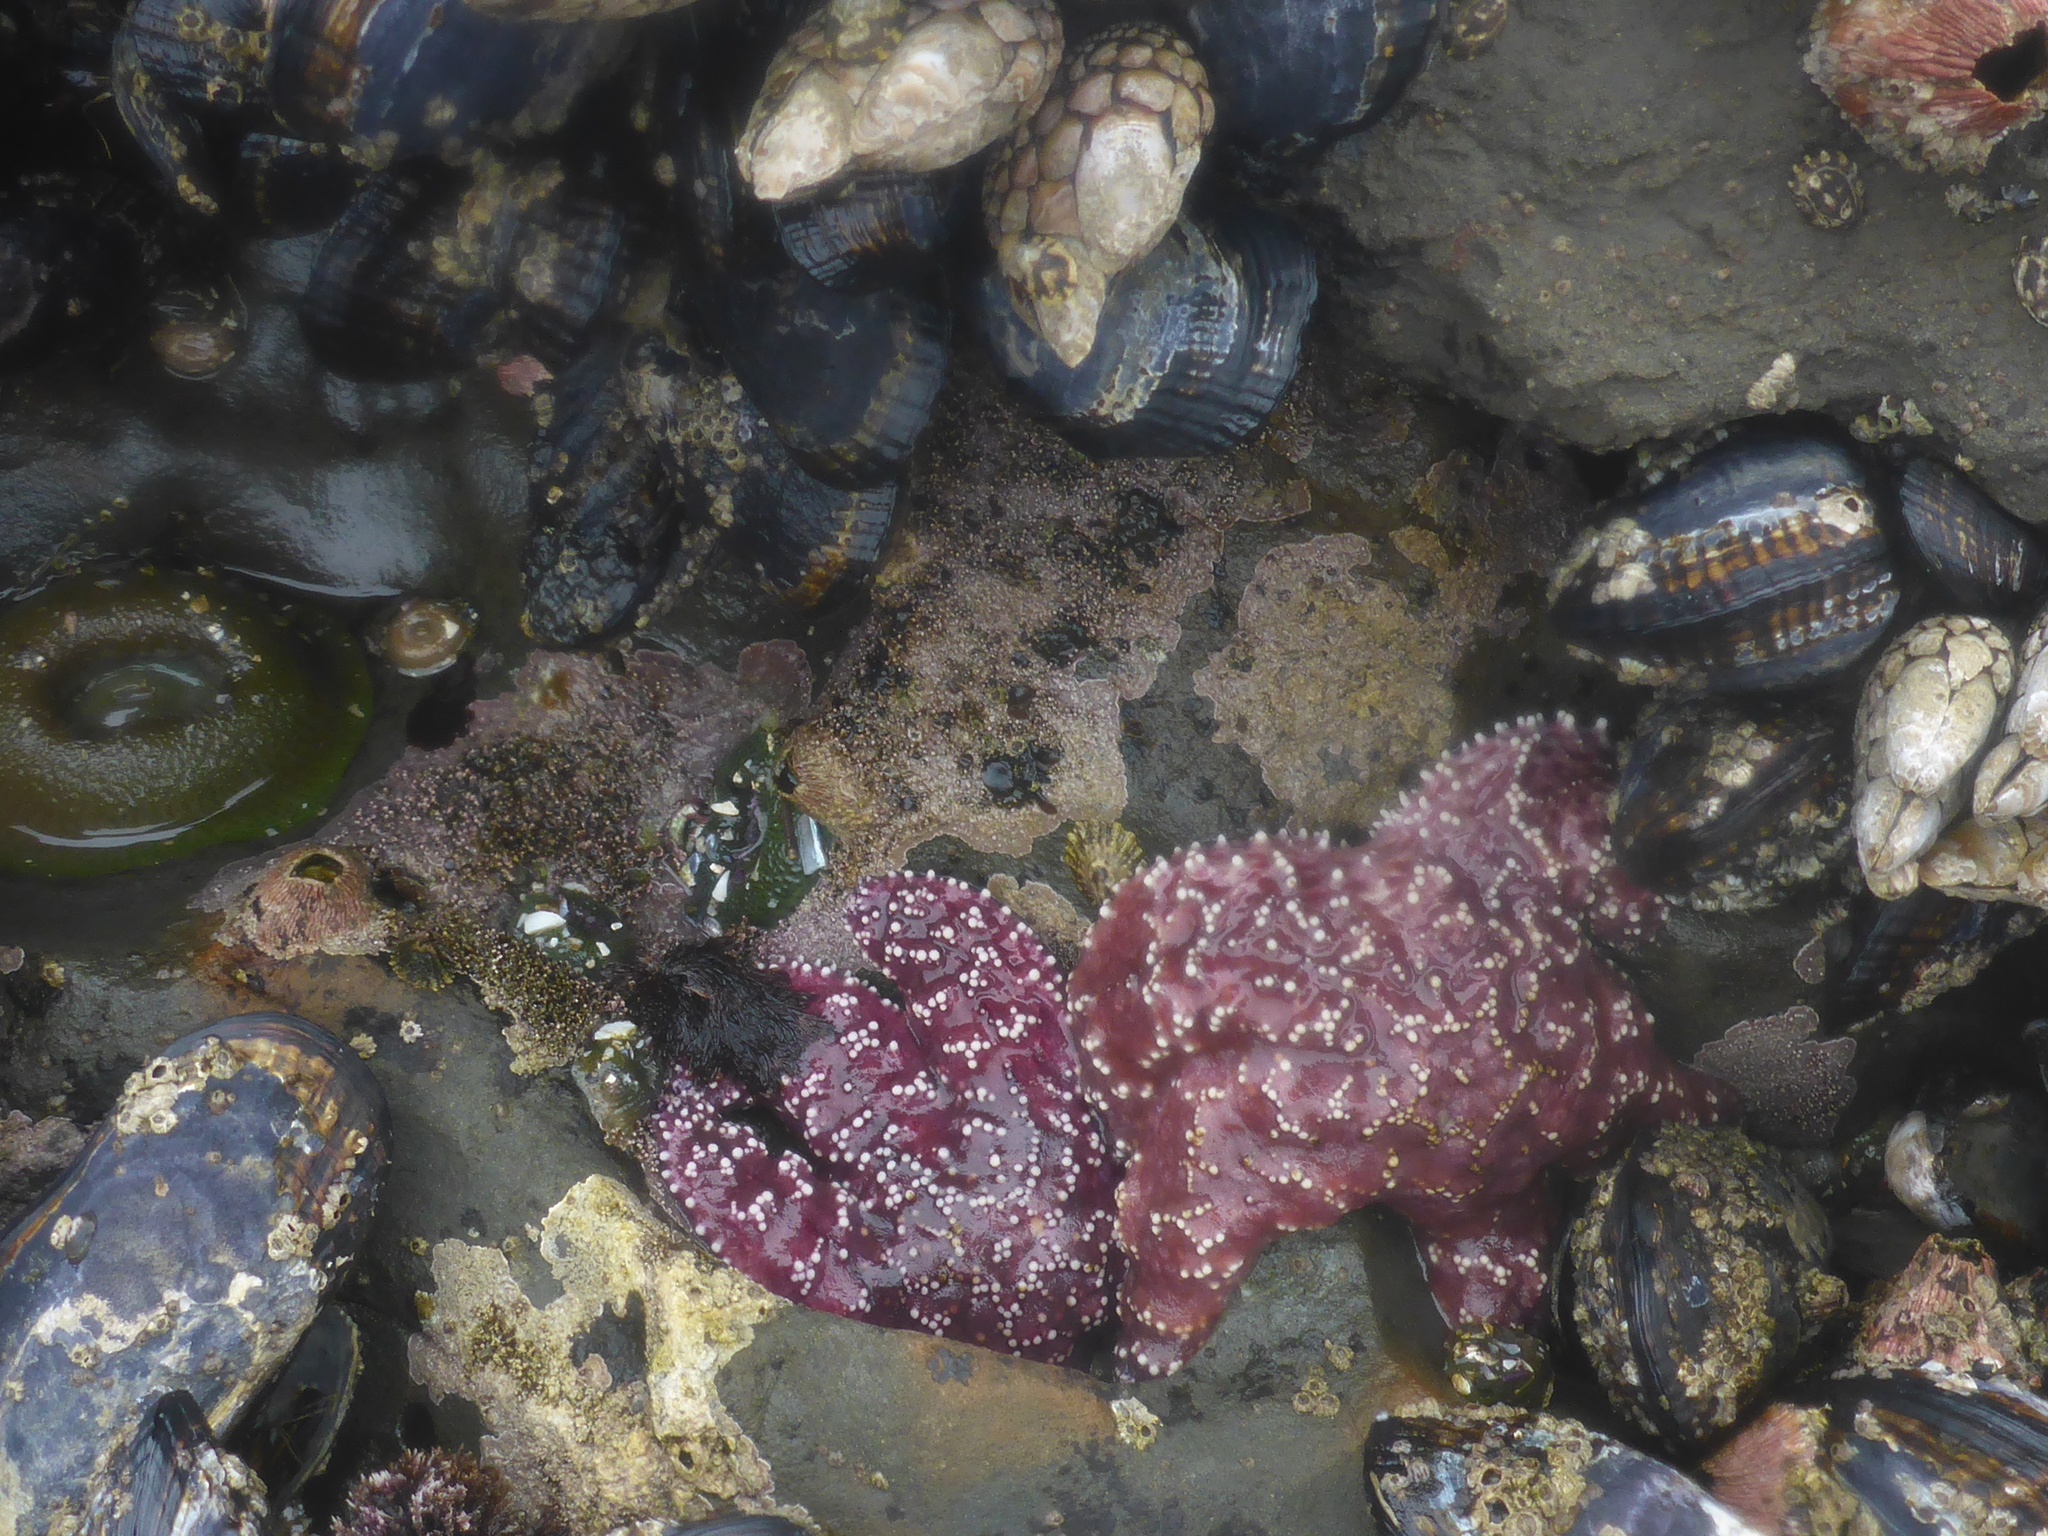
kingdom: Animalia
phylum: Echinodermata
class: Asteroidea
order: Forcipulatida
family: Asteriidae
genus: Pisaster
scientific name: Pisaster ochraceus
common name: Ochre stars
